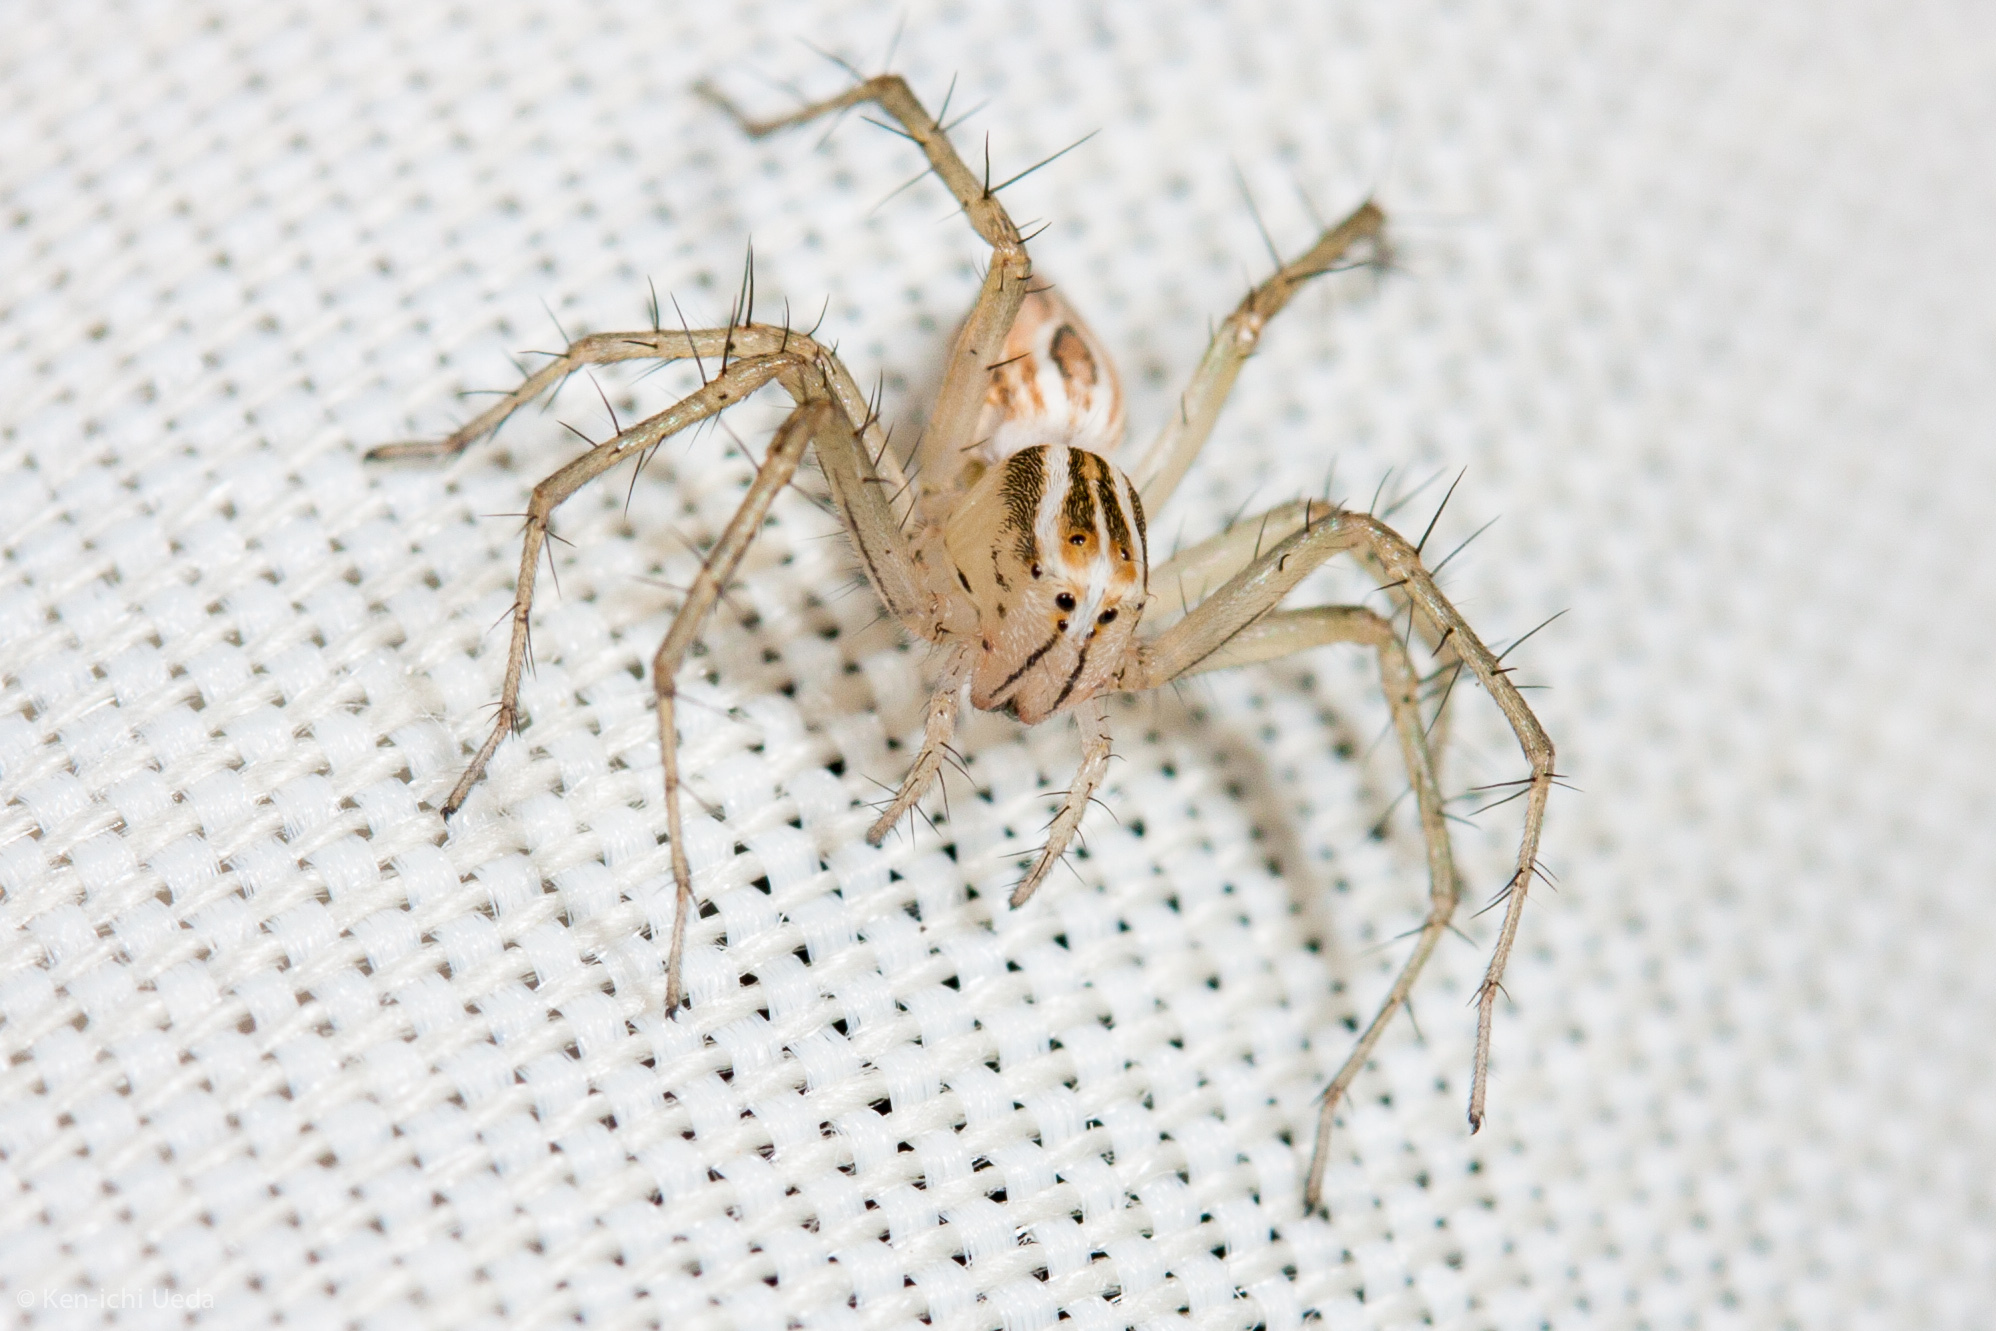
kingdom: Animalia
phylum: Arthropoda
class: Arachnida
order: Araneae
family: Oxyopidae
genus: Oxyopes
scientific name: Oxyopes salticus
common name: Lynx spiders
